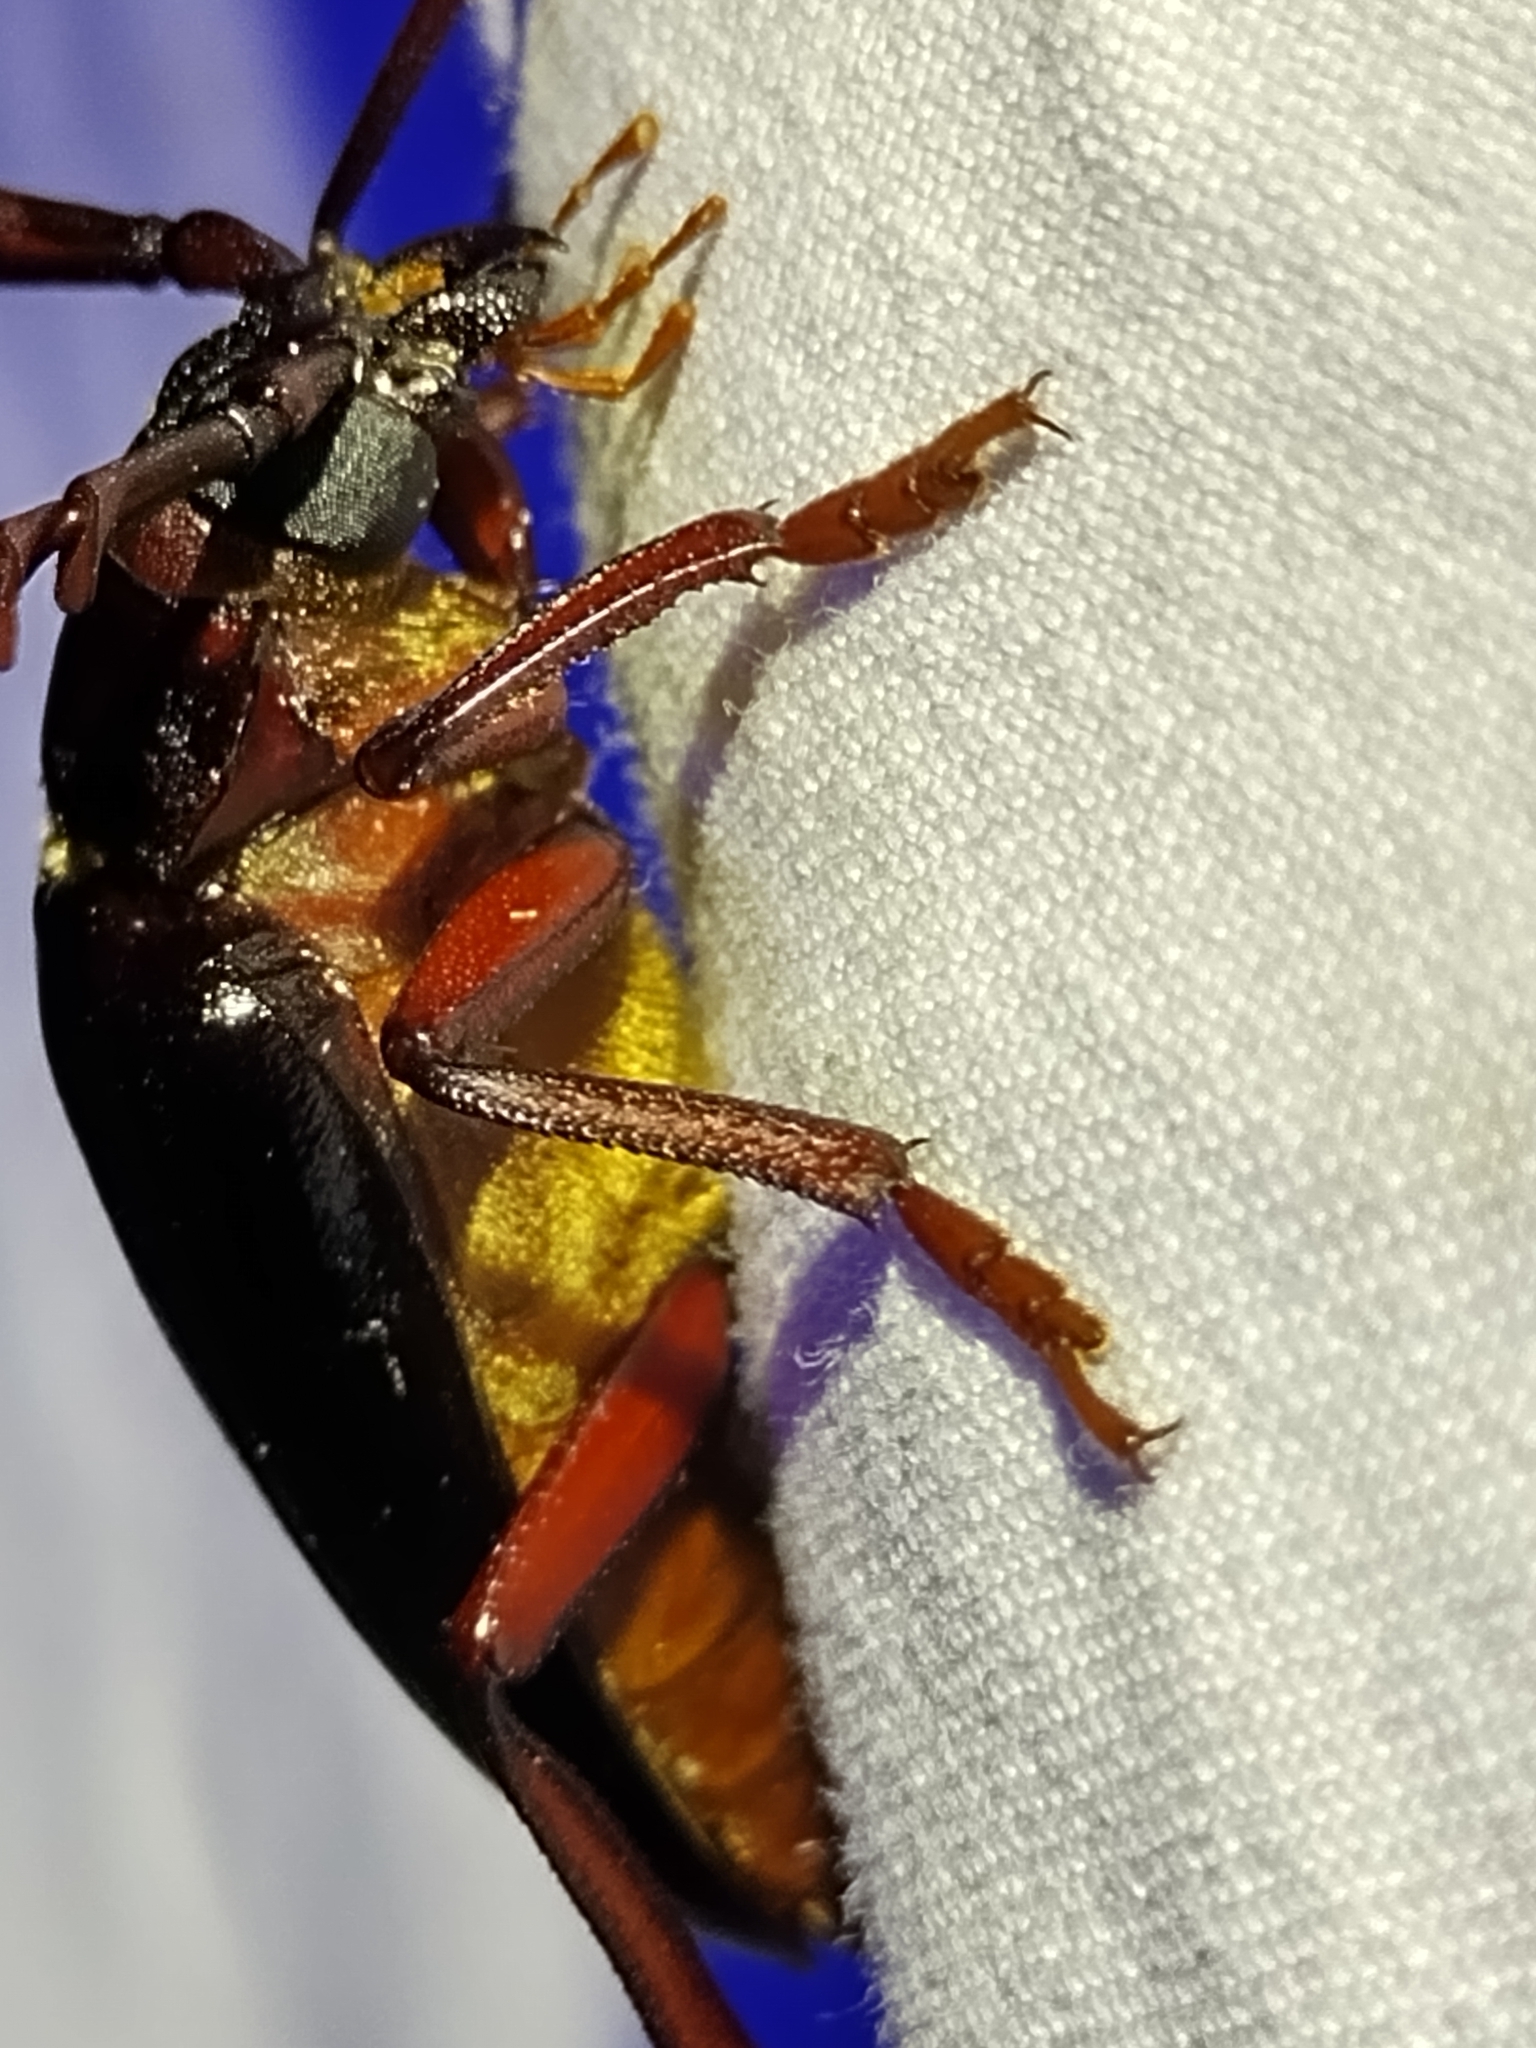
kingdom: Animalia
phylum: Arthropoda
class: Insecta
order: Coleoptera
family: Cerambycidae
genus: Prionus
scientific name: Prionus imbricornis
